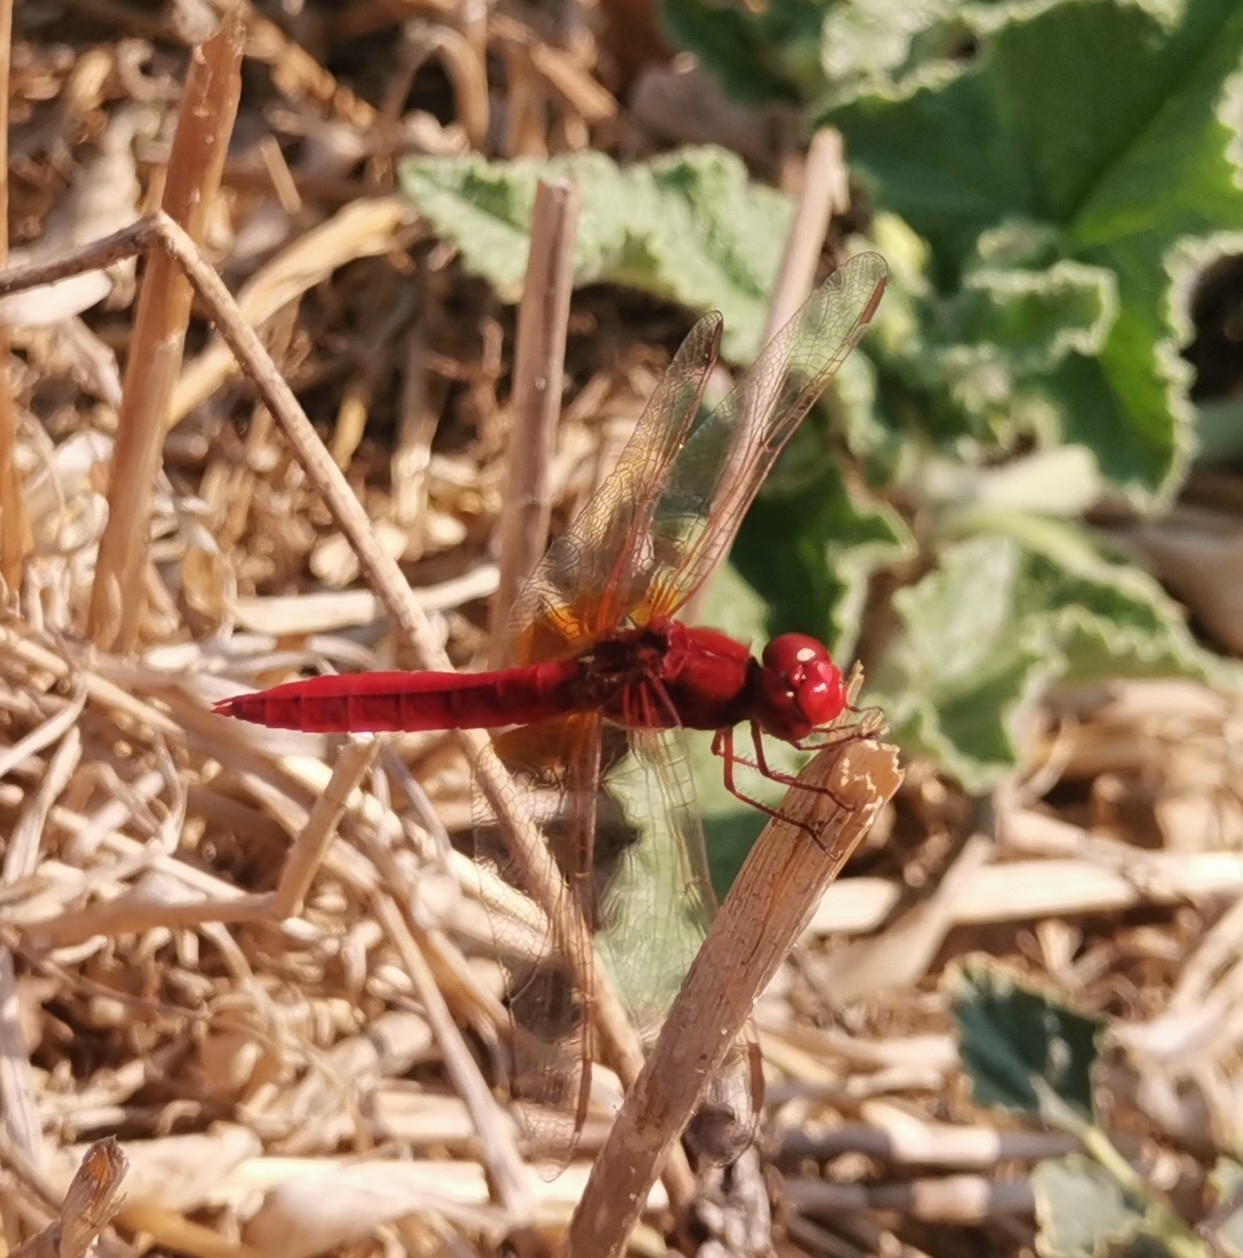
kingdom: Animalia
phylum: Arthropoda
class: Insecta
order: Odonata
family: Libellulidae
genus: Crocothemis
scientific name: Crocothemis erythraea
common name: Scarlet dragonfly
